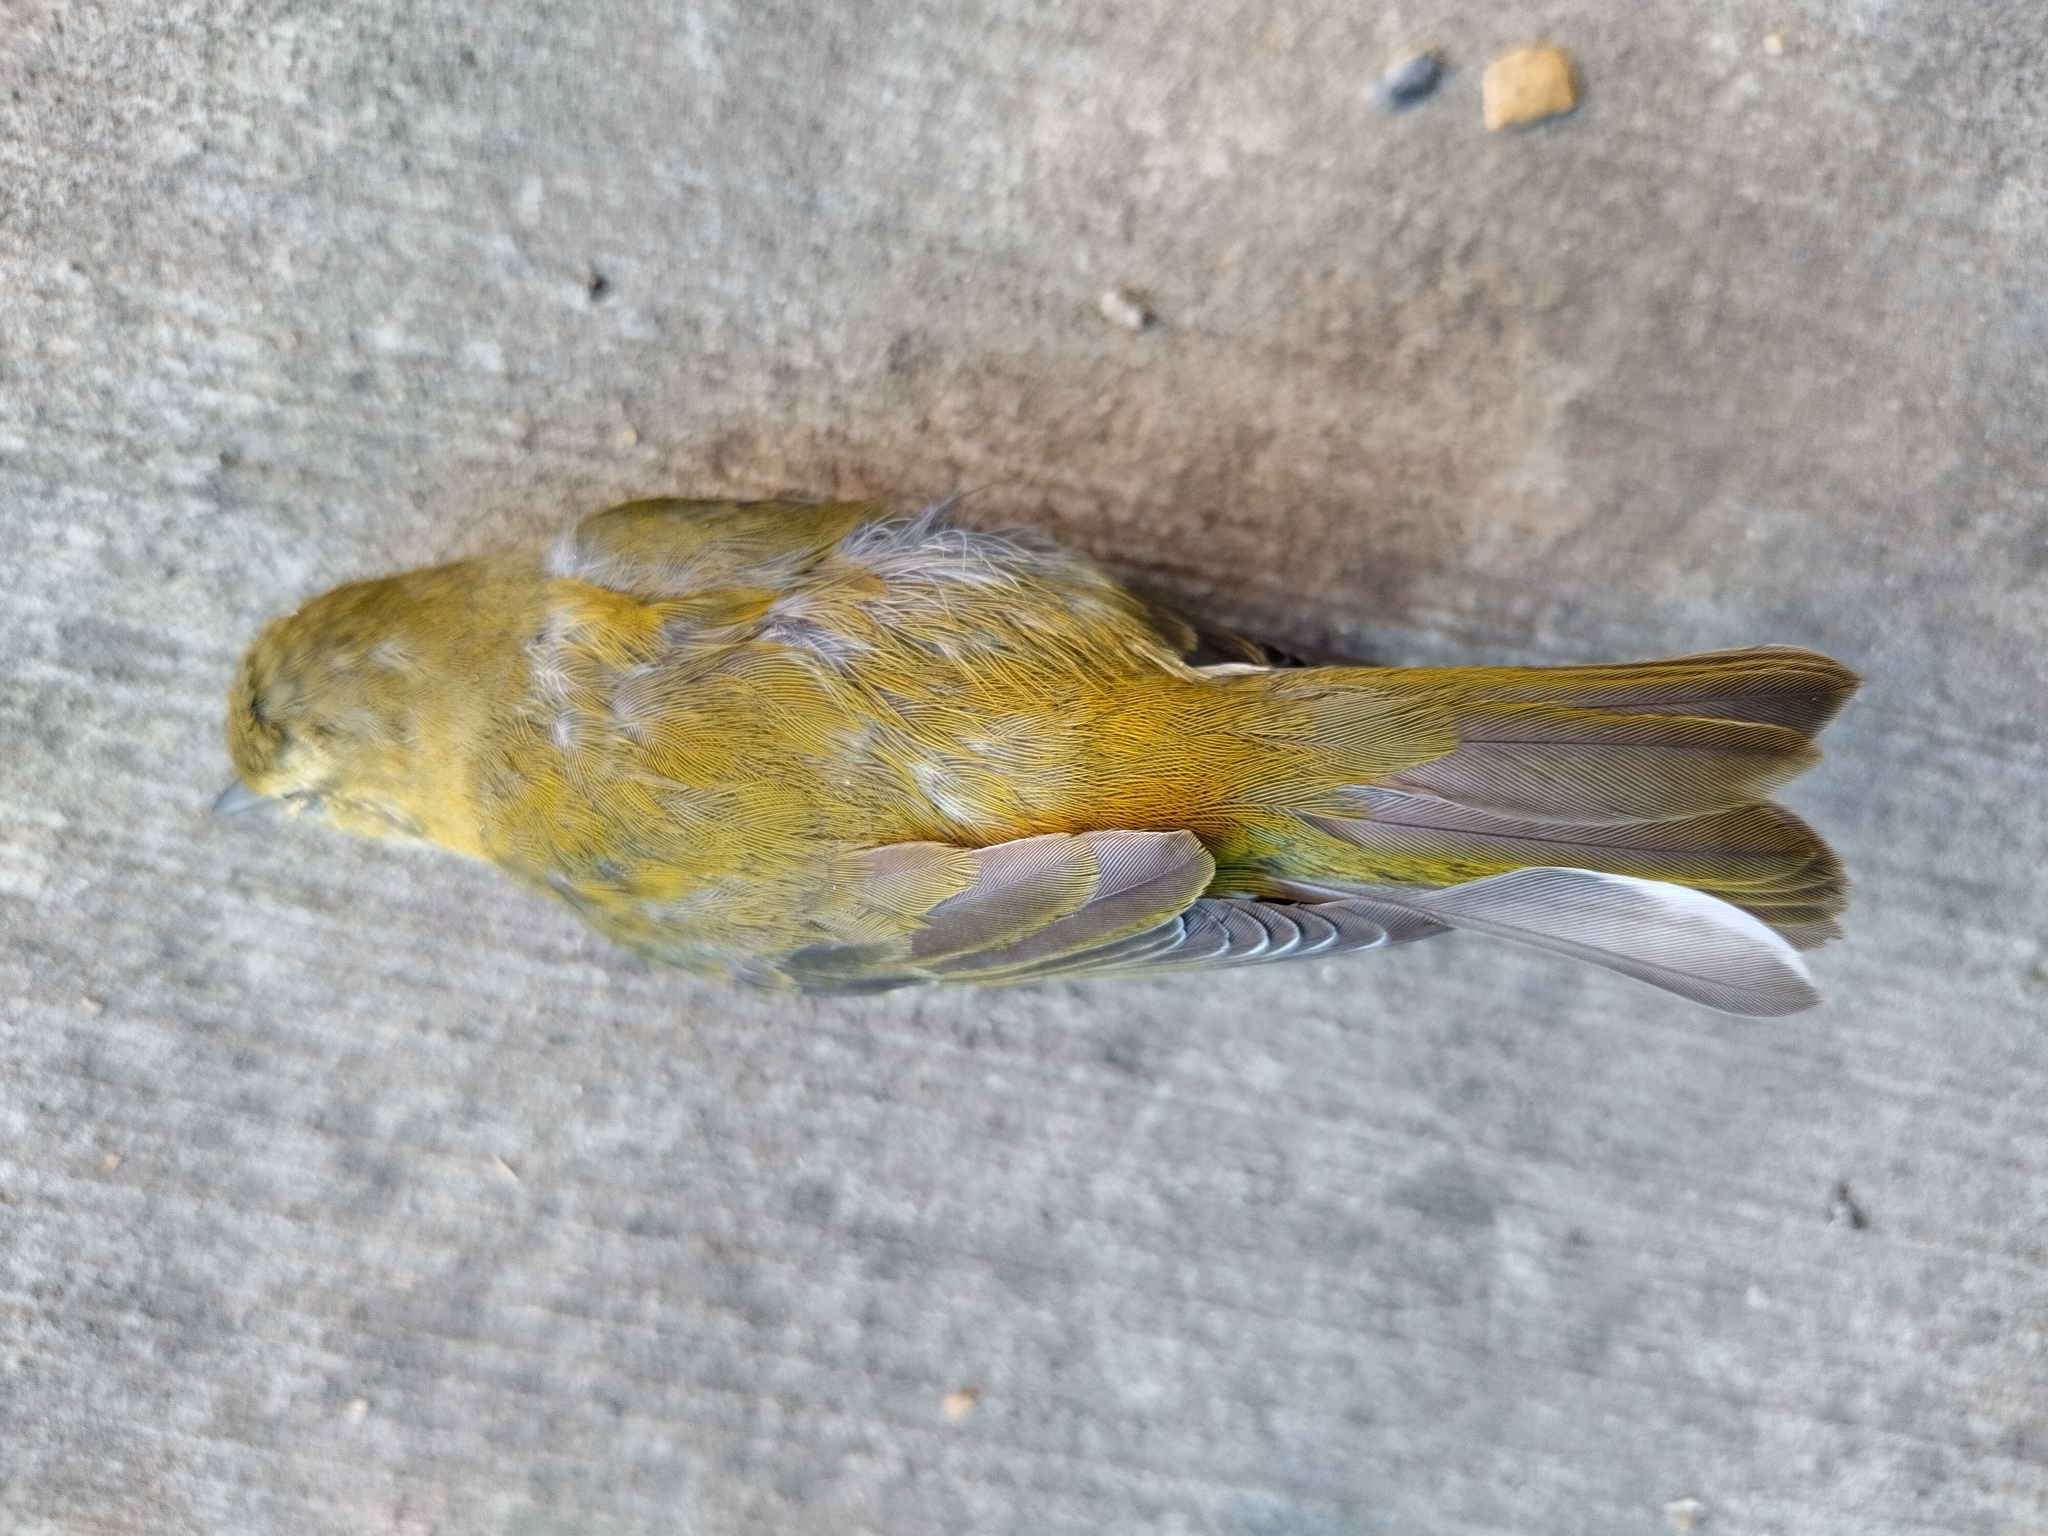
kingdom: Animalia
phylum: Chordata
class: Aves
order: Passeriformes
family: Parulidae
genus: Leiothlypis
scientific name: Leiothlypis peregrina
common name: Tennessee warbler
